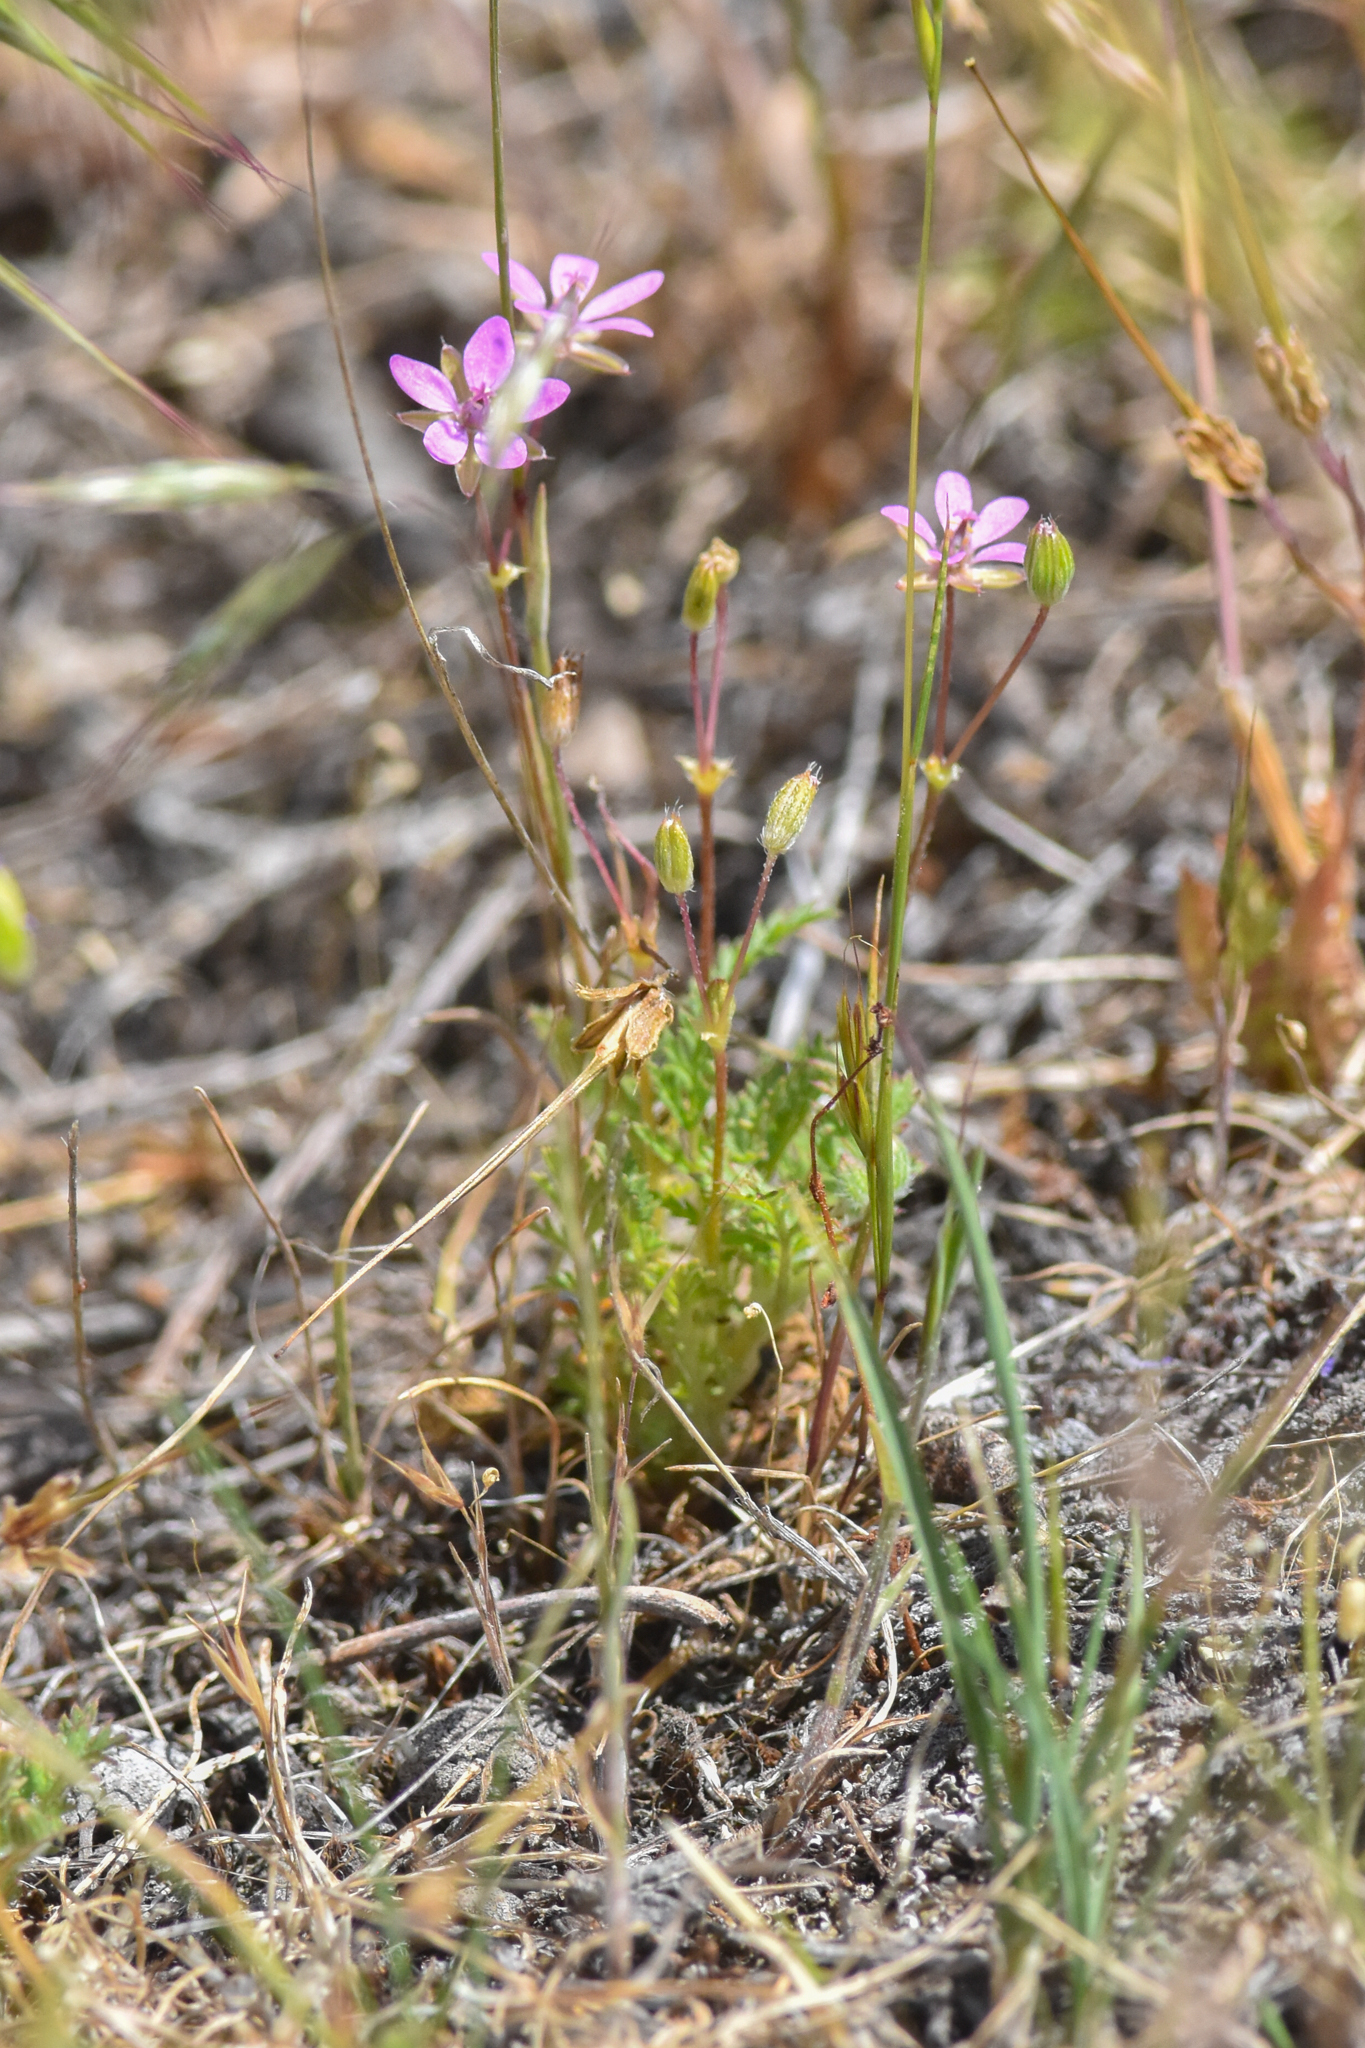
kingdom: Plantae
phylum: Tracheophyta
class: Magnoliopsida
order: Geraniales
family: Geraniaceae
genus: Erodium
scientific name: Erodium cicutarium
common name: Common stork's-bill
